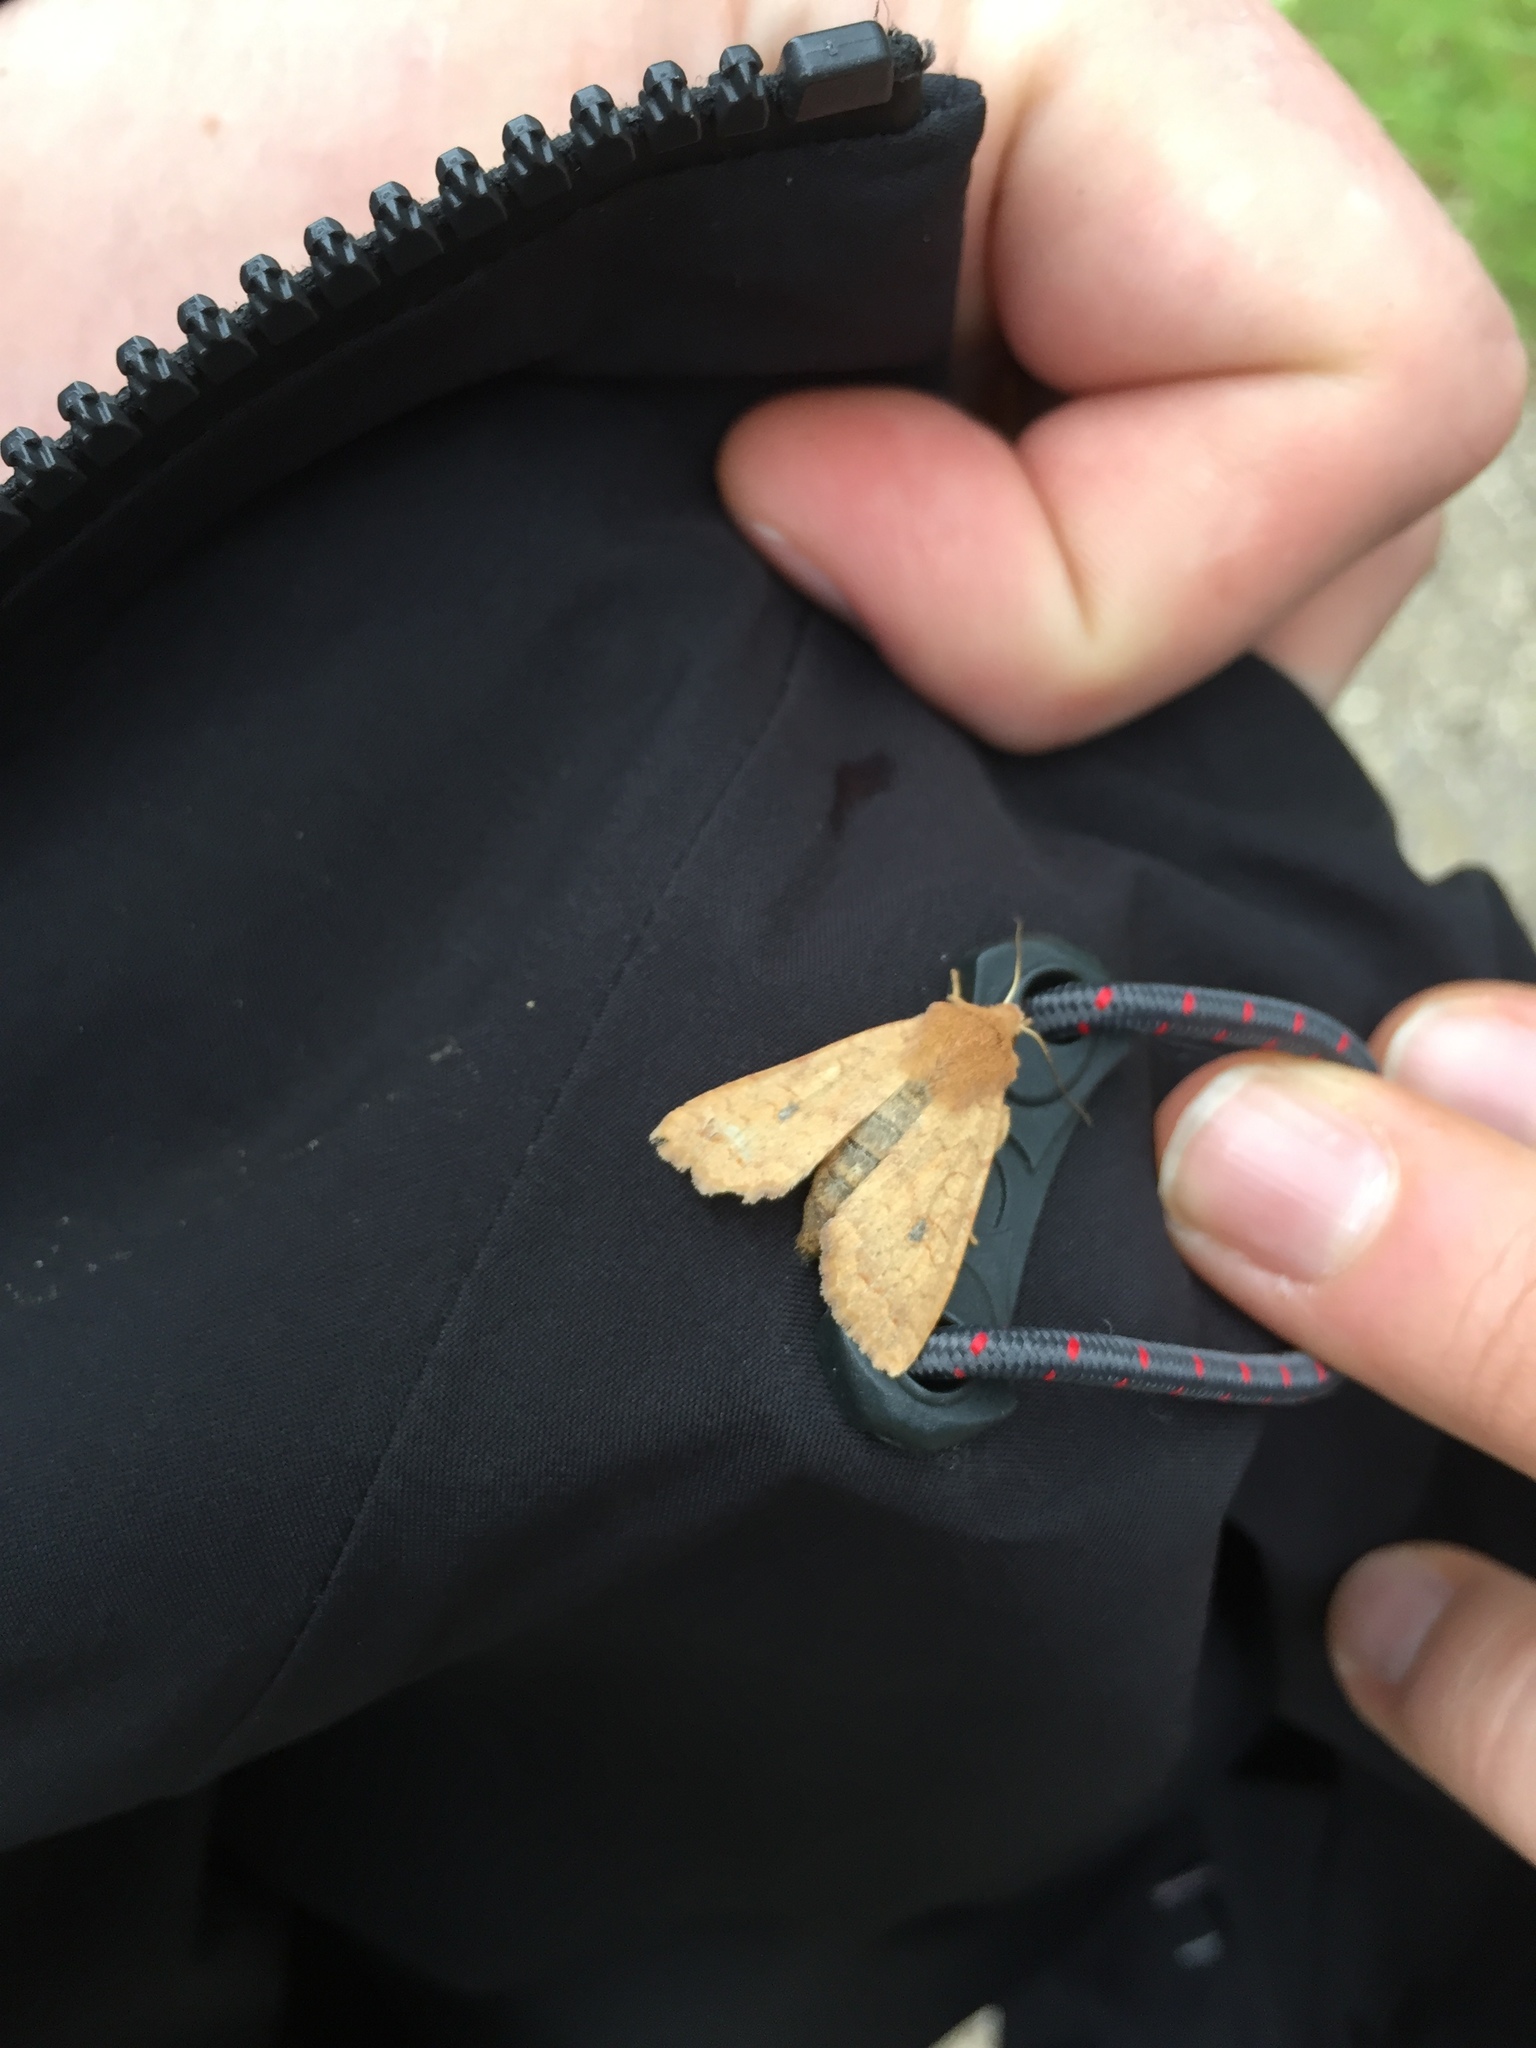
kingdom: Animalia
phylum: Arthropoda
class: Insecta
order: Lepidoptera
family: Noctuidae
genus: Sunira
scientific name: Sunira circellaris
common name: Brick
